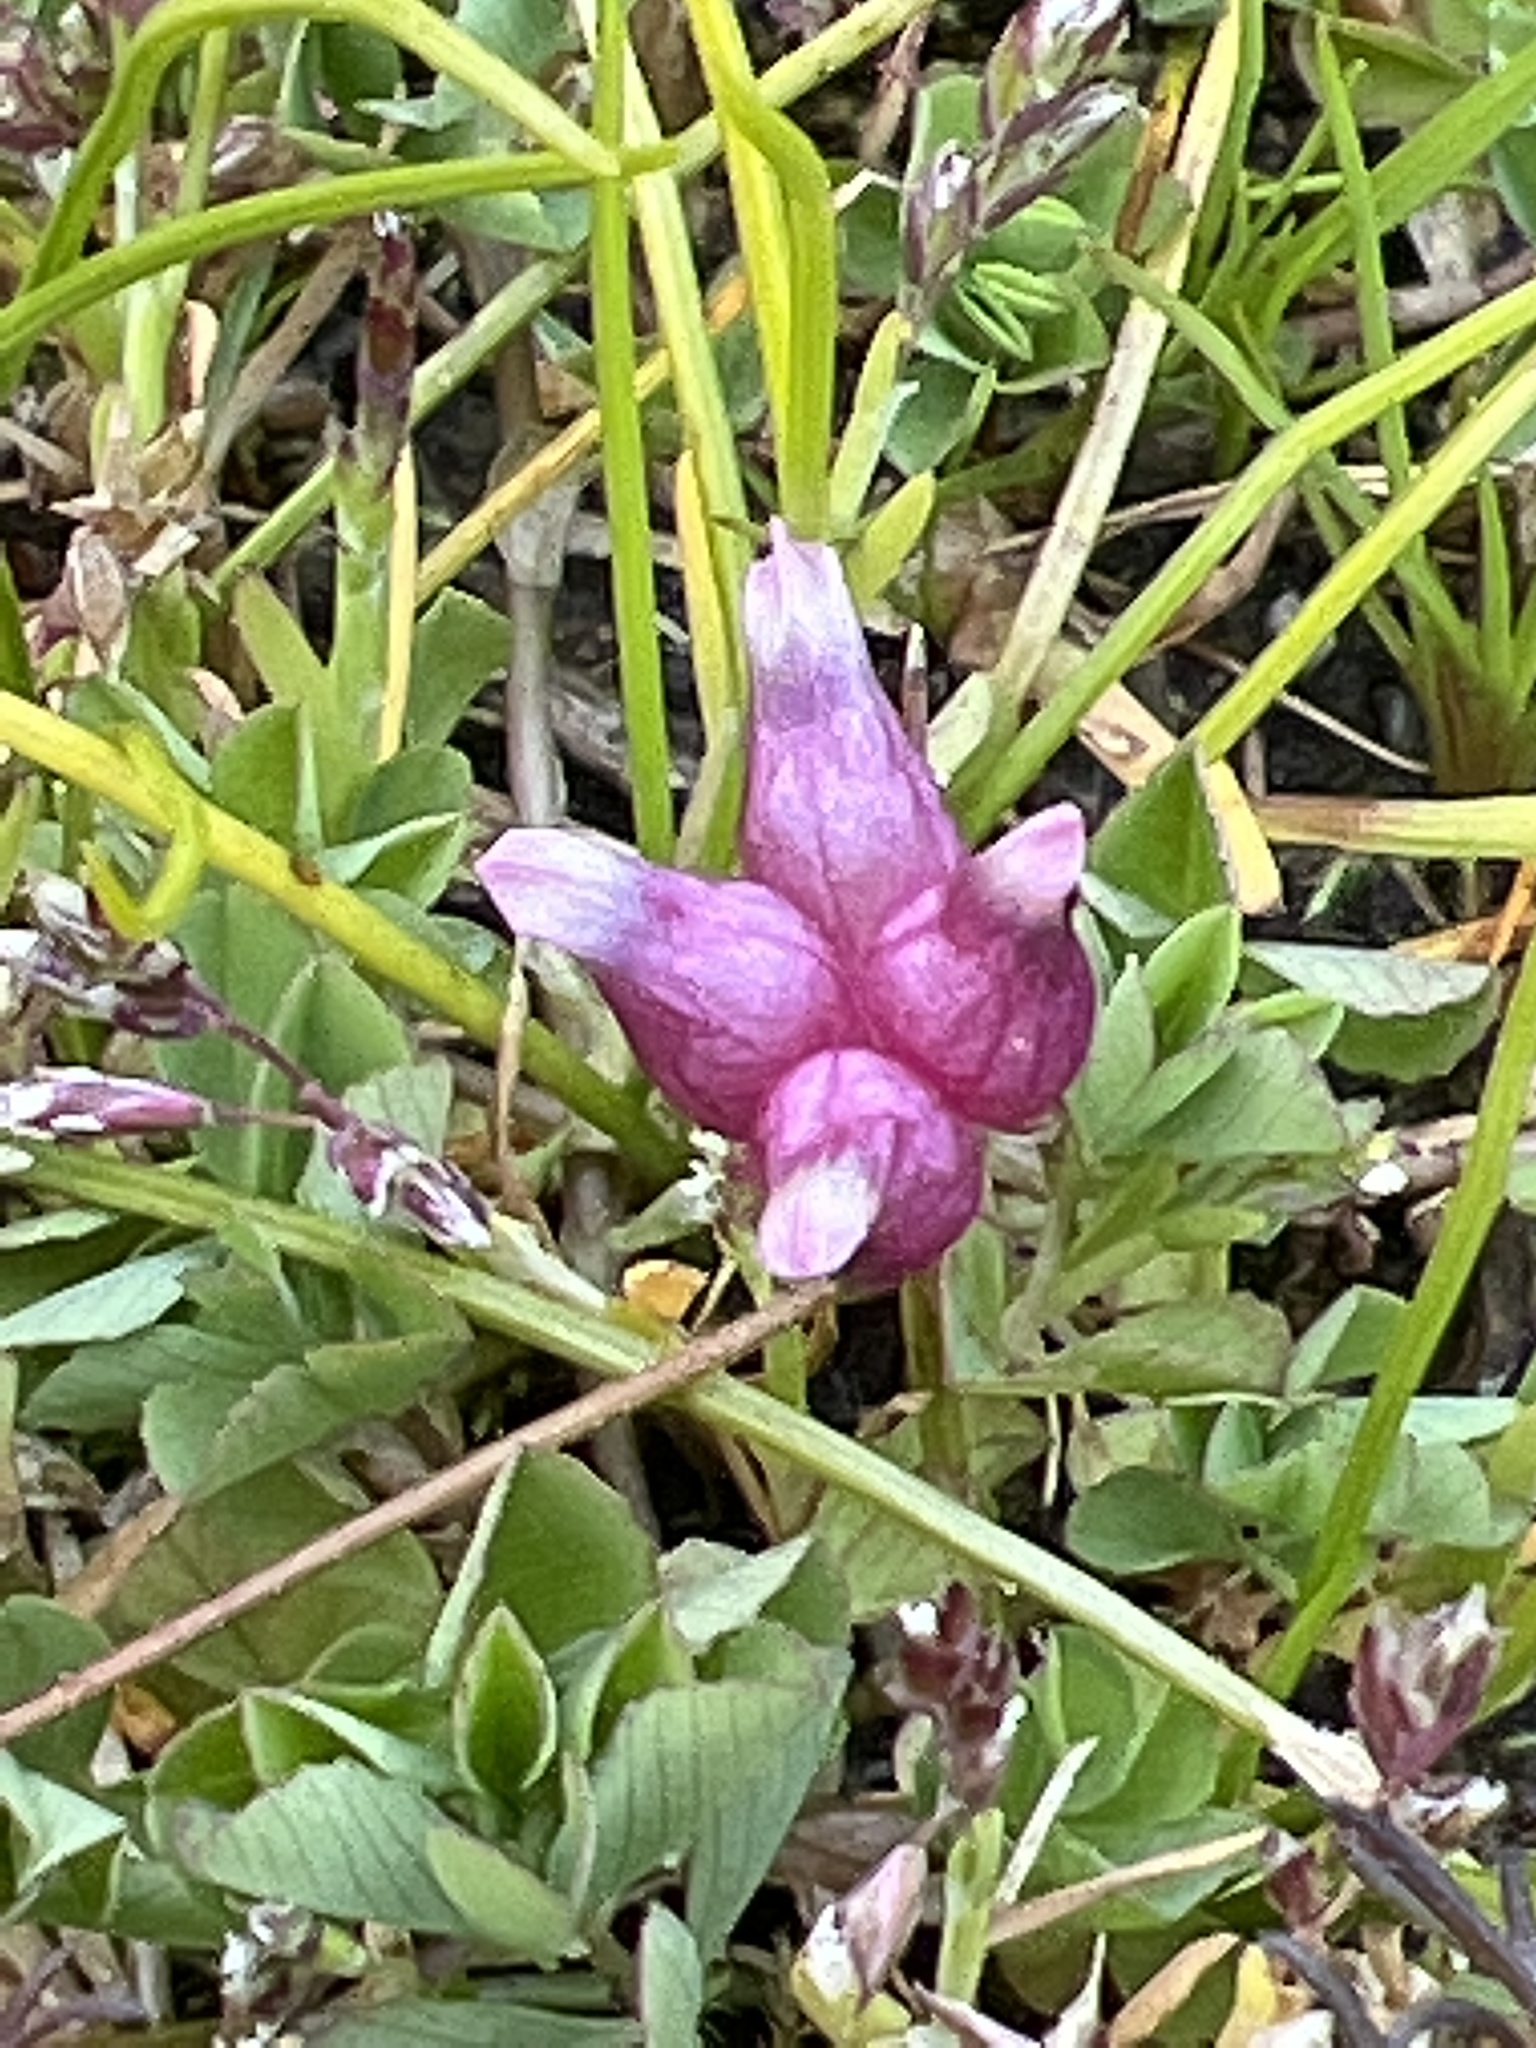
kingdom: Plantae
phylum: Tracheophyta
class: Magnoliopsida
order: Fabales
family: Fabaceae
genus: Trifolium
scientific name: Trifolium depauperatum
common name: Poverty clover
